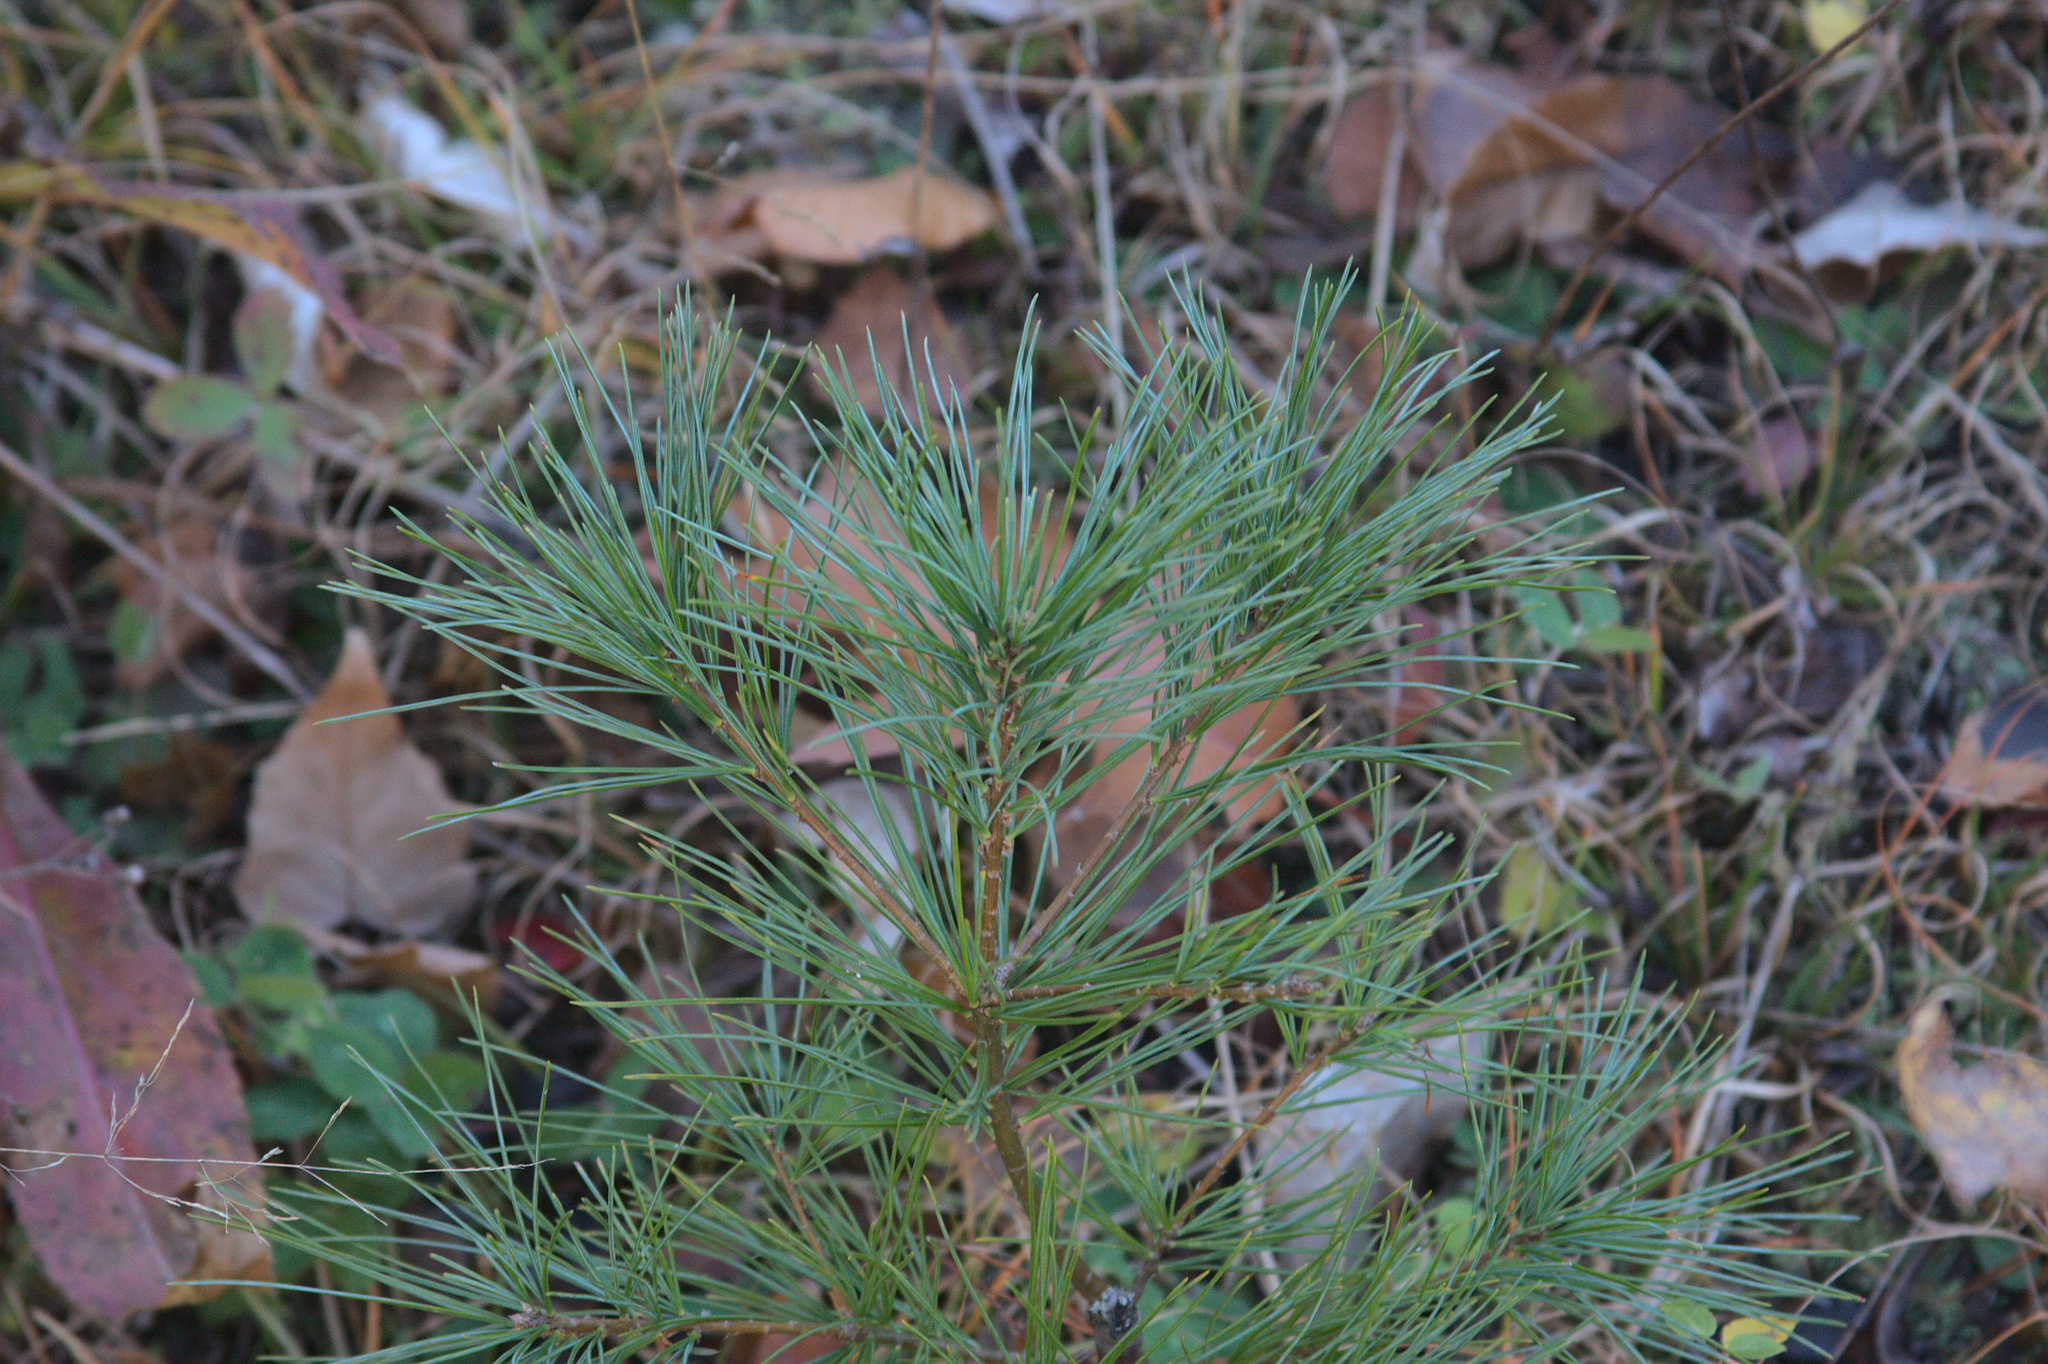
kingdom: Plantae
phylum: Tracheophyta
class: Pinopsida
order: Pinales
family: Pinaceae
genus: Pinus
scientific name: Pinus strobus
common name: Weymouth pine
